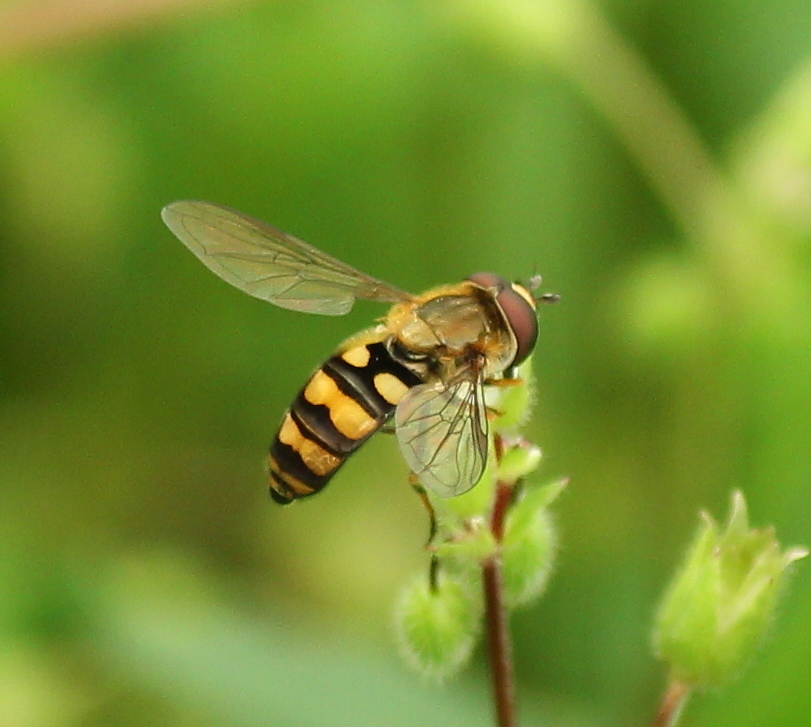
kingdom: Animalia
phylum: Arthropoda
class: Insecta
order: Diptera
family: Syrphidae
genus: Eupeodes
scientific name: Eupeodes latifasciatus
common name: Variable aphideater
